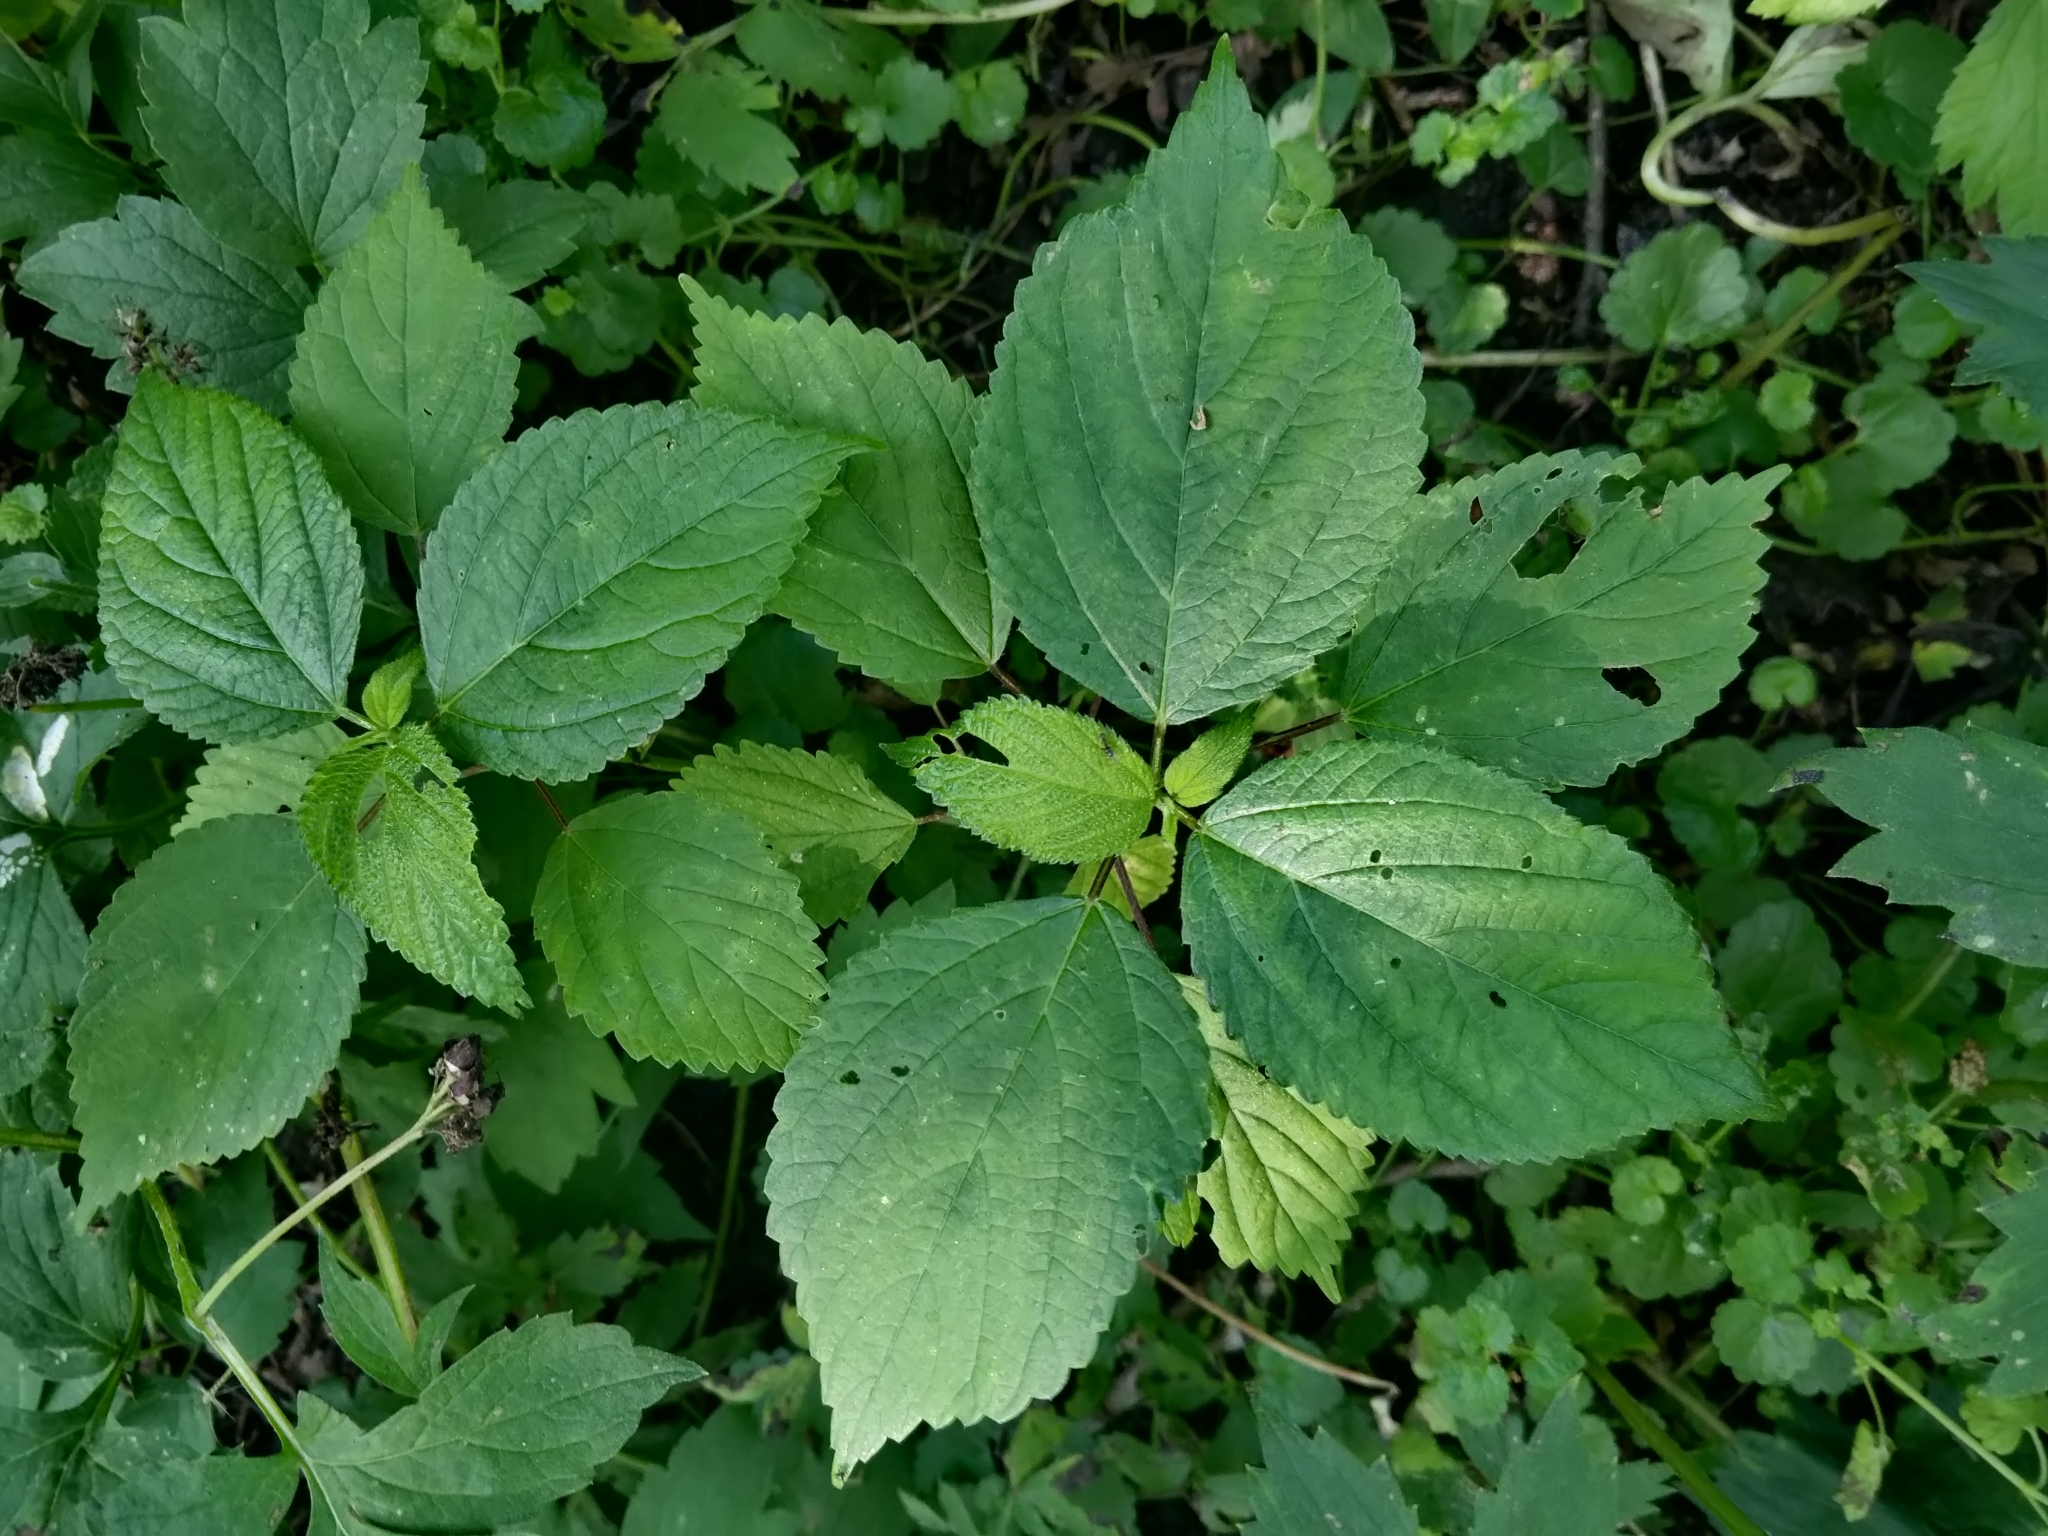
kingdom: Plantae
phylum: Tracheophyta
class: Magnoliopsida
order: Rosales
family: Urticaceae
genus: Laportea
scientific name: Laportea canadensis
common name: Canada nettle
